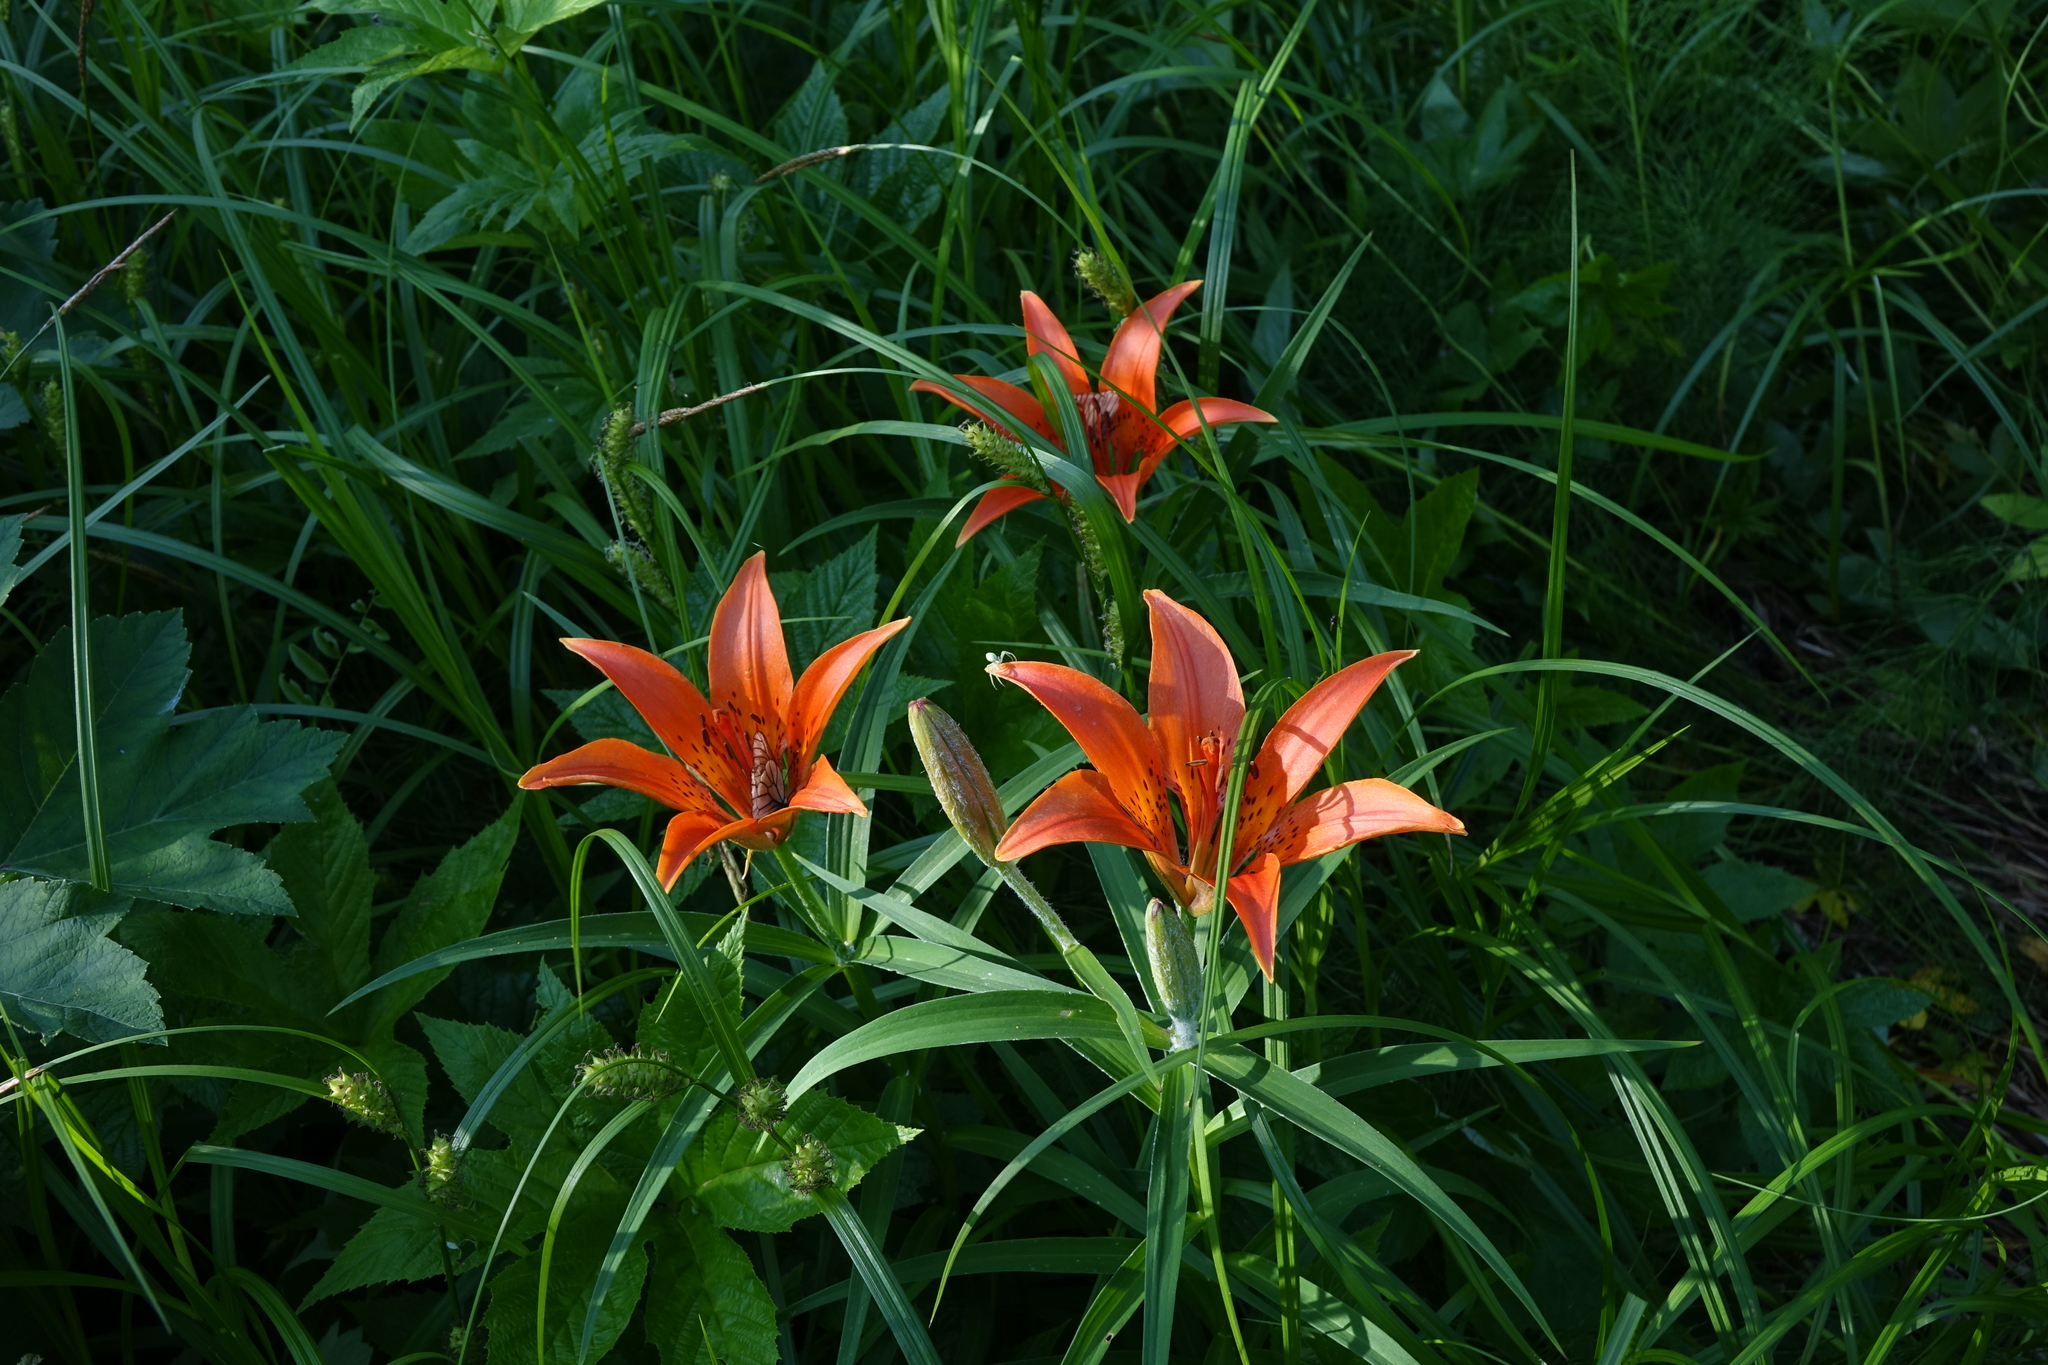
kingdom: Plantae
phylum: Tracheophyta
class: Liliopsida
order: Liliales
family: Liliaceae
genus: Lilium
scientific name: Lilium pensylvanicum
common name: Candlestick lily
